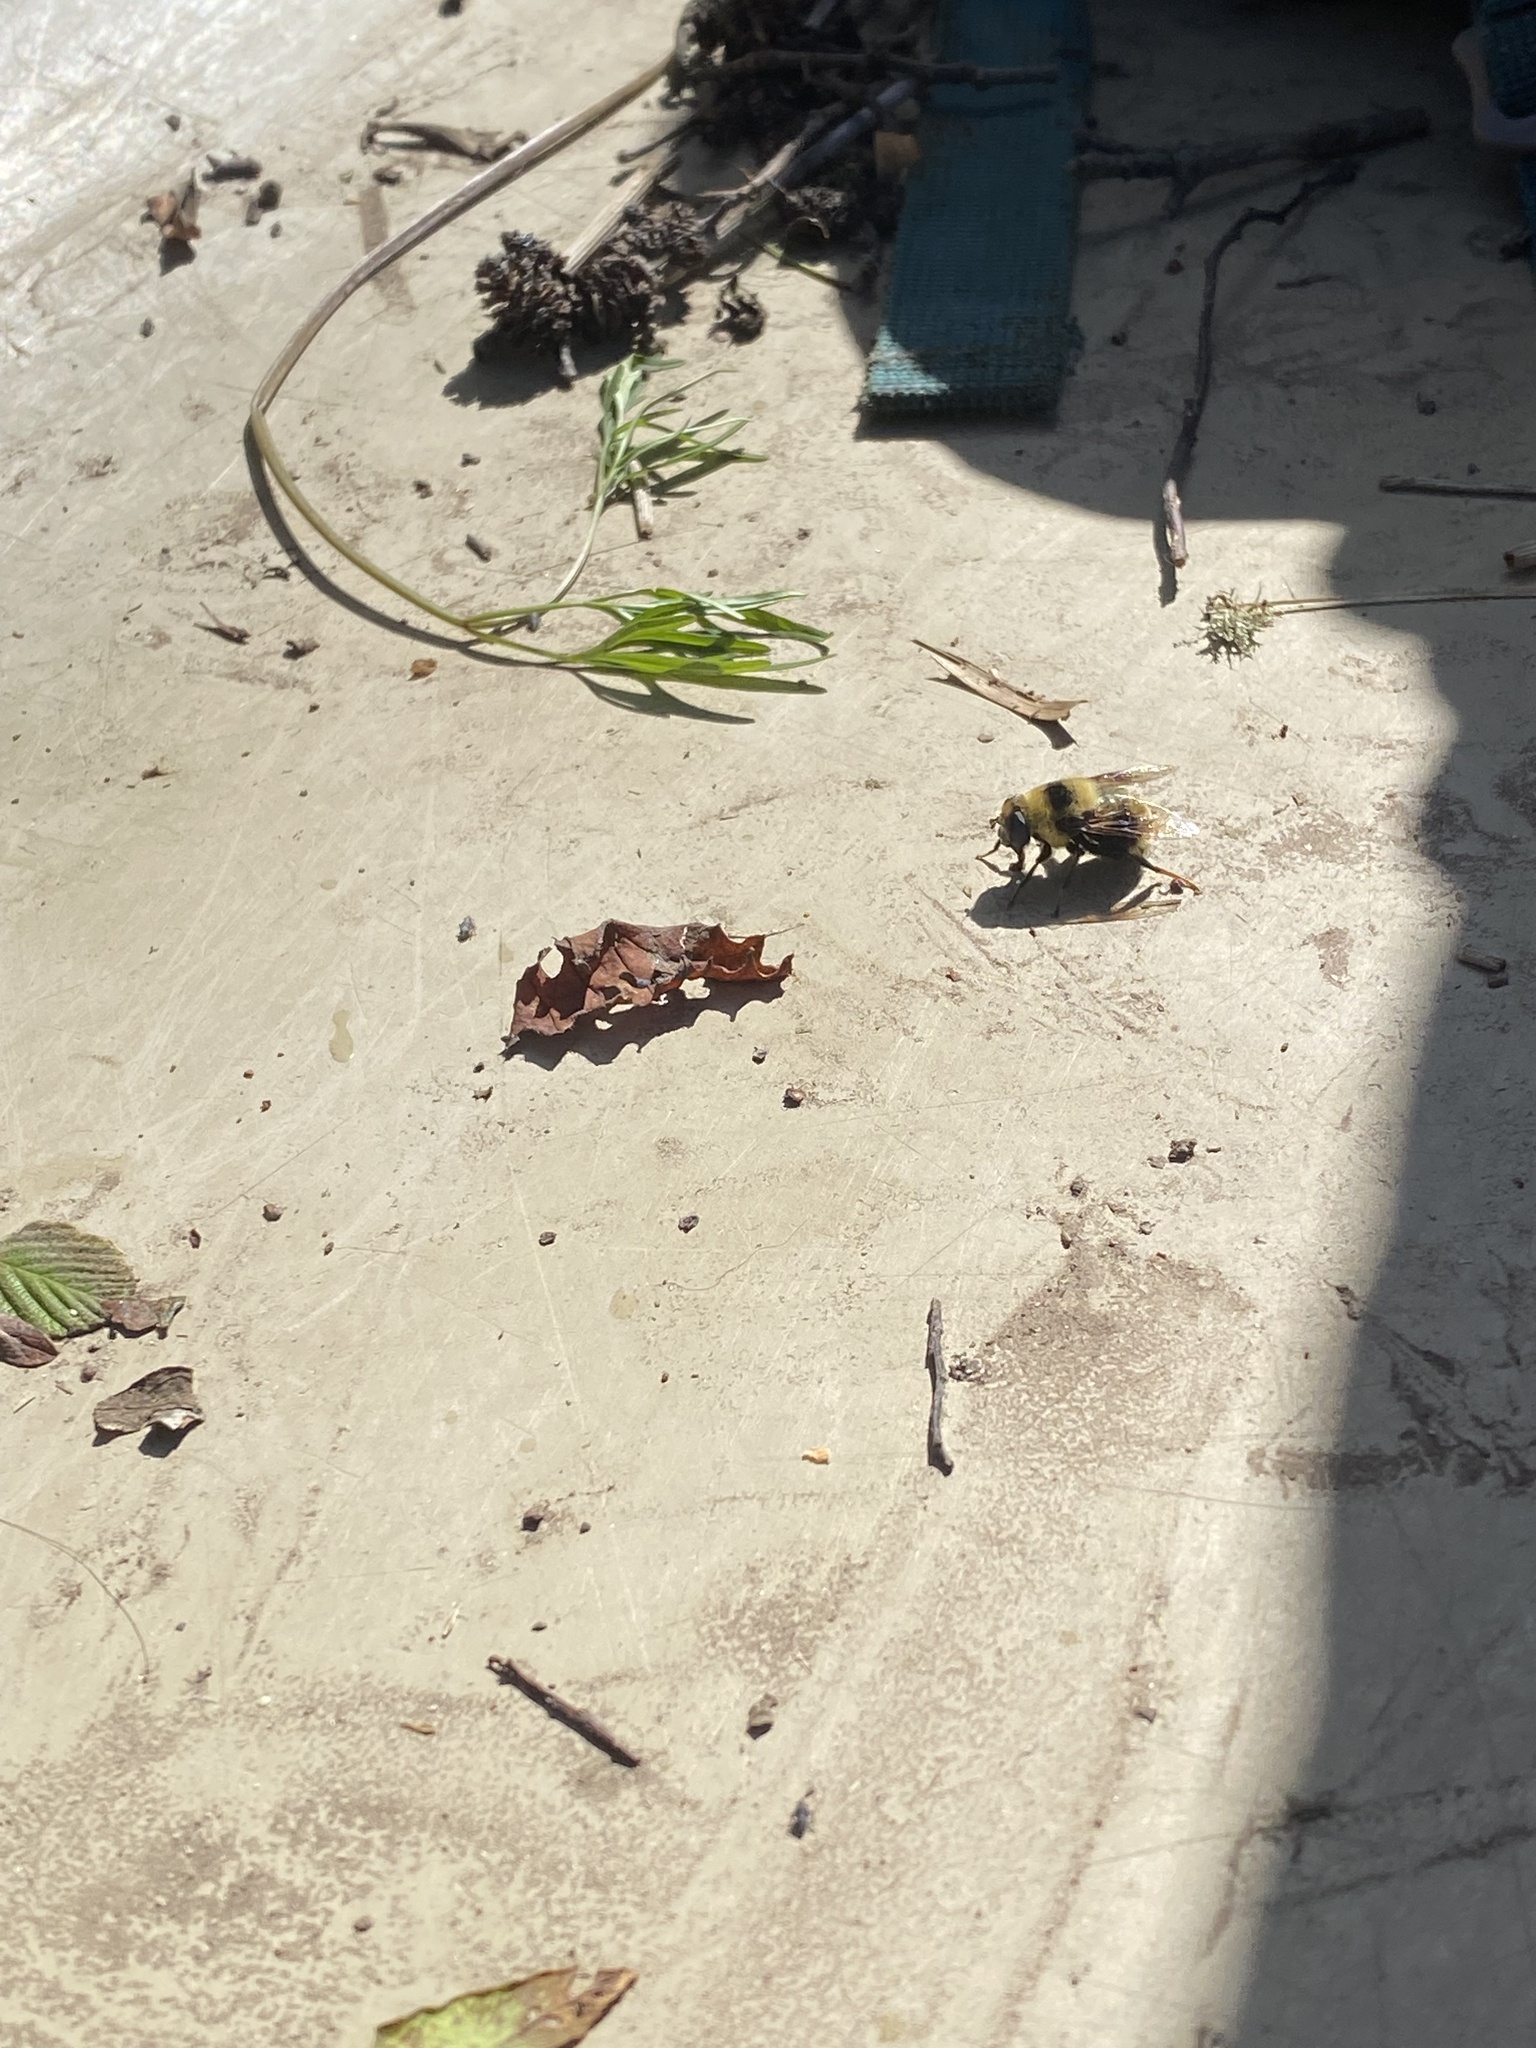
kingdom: Animalia
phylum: Arthropoda
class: Insecta
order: Diptera
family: Syrphidae
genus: Eristalis
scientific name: Eristalis flavipes
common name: Orange-legged drone fly
